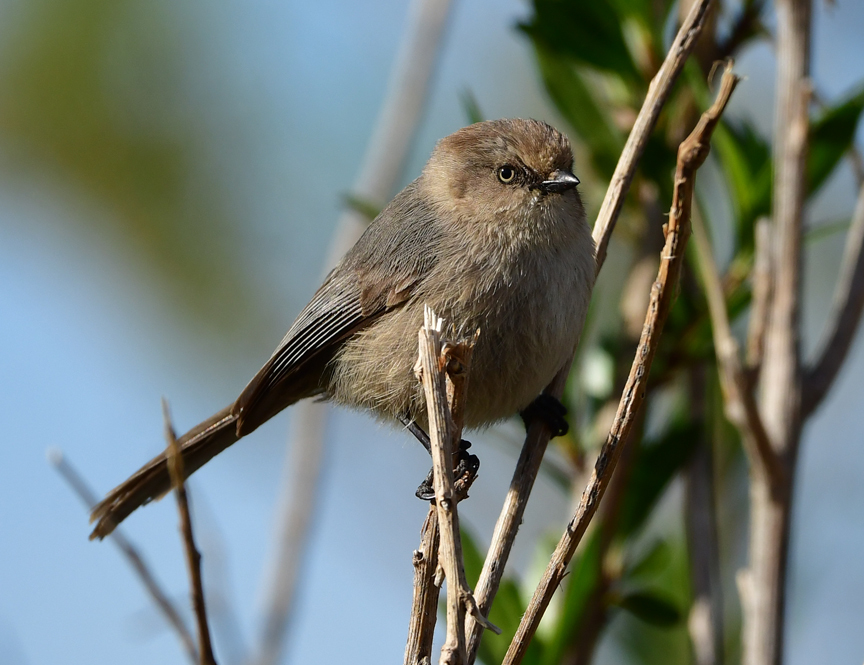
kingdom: Animalia
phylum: Chordata
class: Aves
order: Passeriformes
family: Aegithalidae
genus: Psaltriparus
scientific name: Psaltriparus minimus
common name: American bushtit
